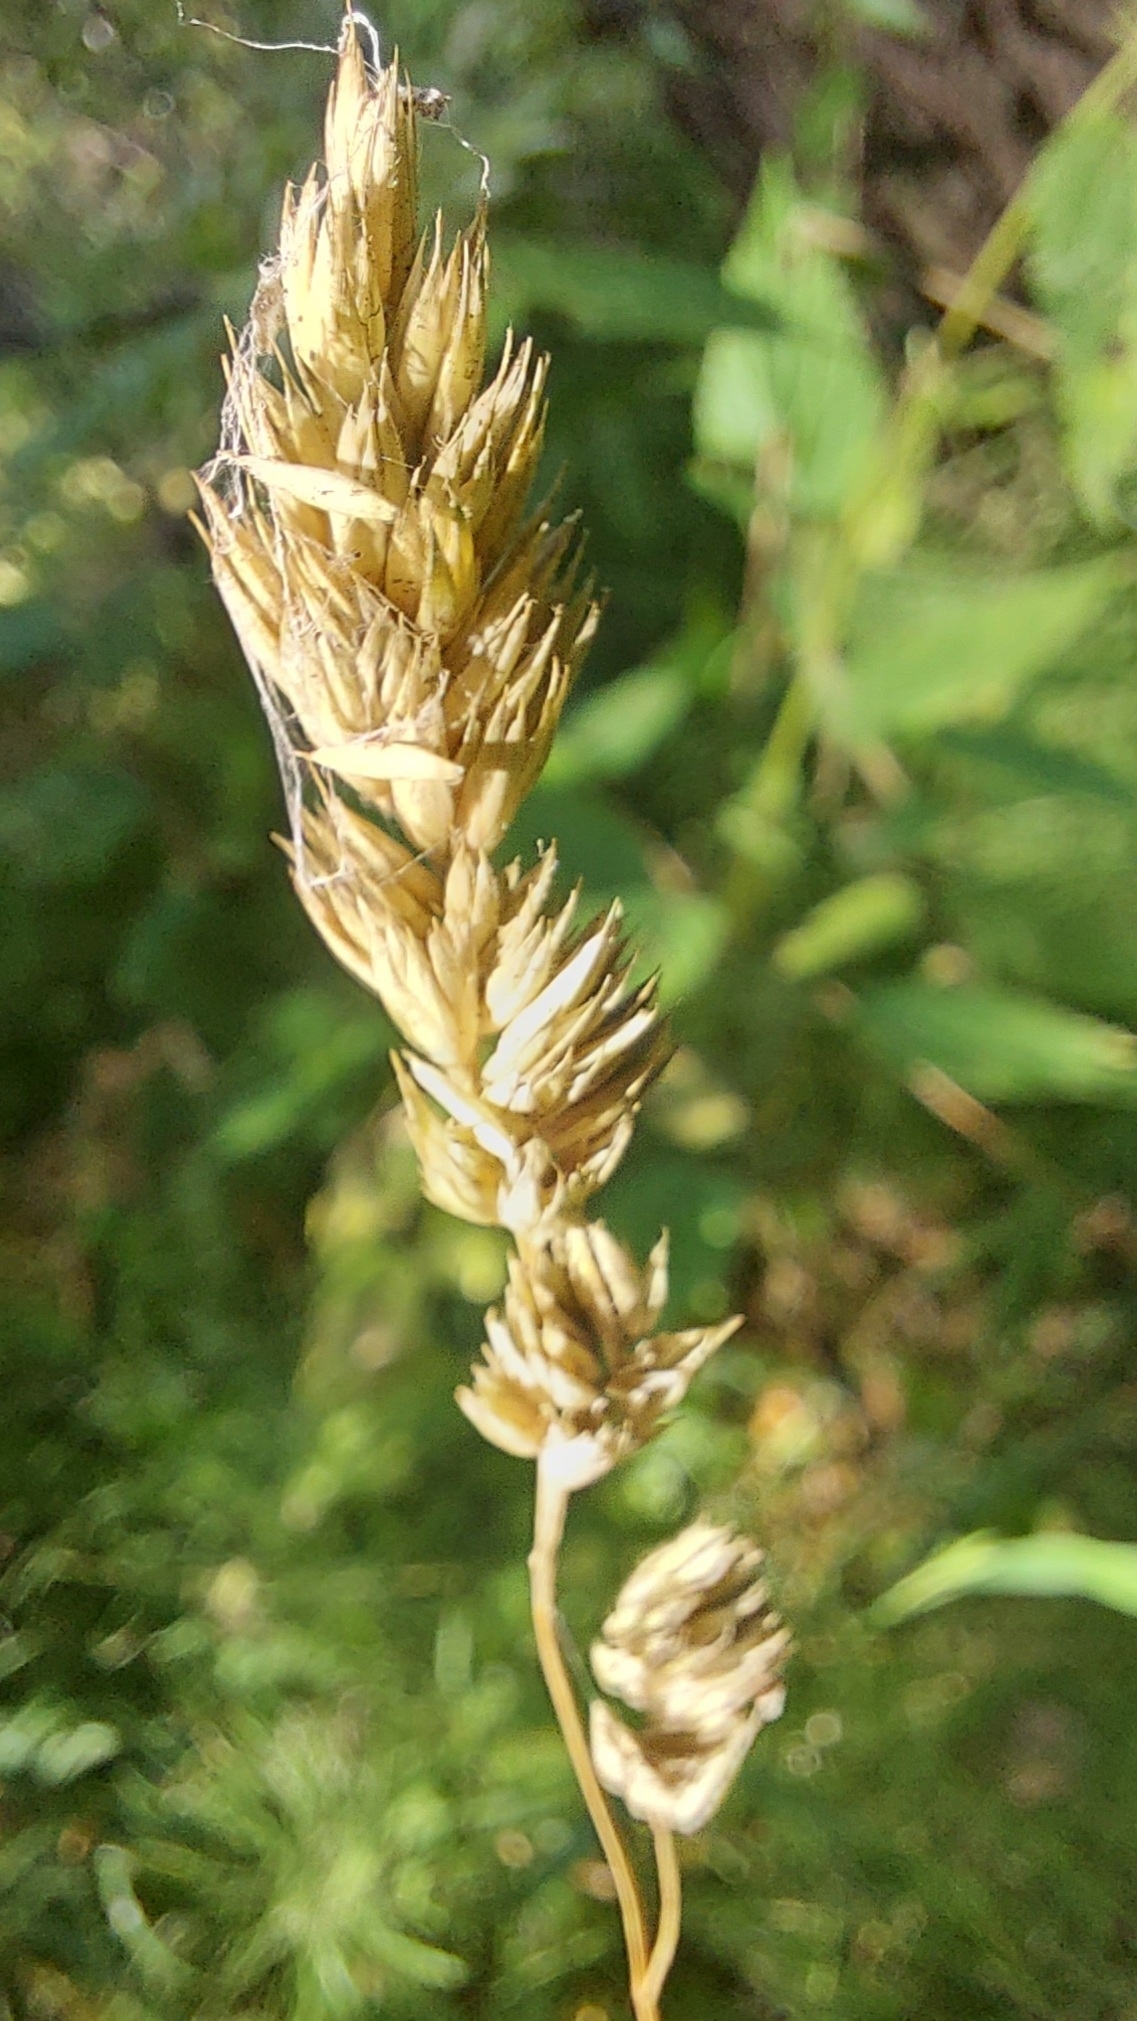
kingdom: Plantae
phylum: Tracheophyta
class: Liliopsida
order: Poales
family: Poaceae
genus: Dactylis
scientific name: Dactylis glomerata
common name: Orchardgrass
